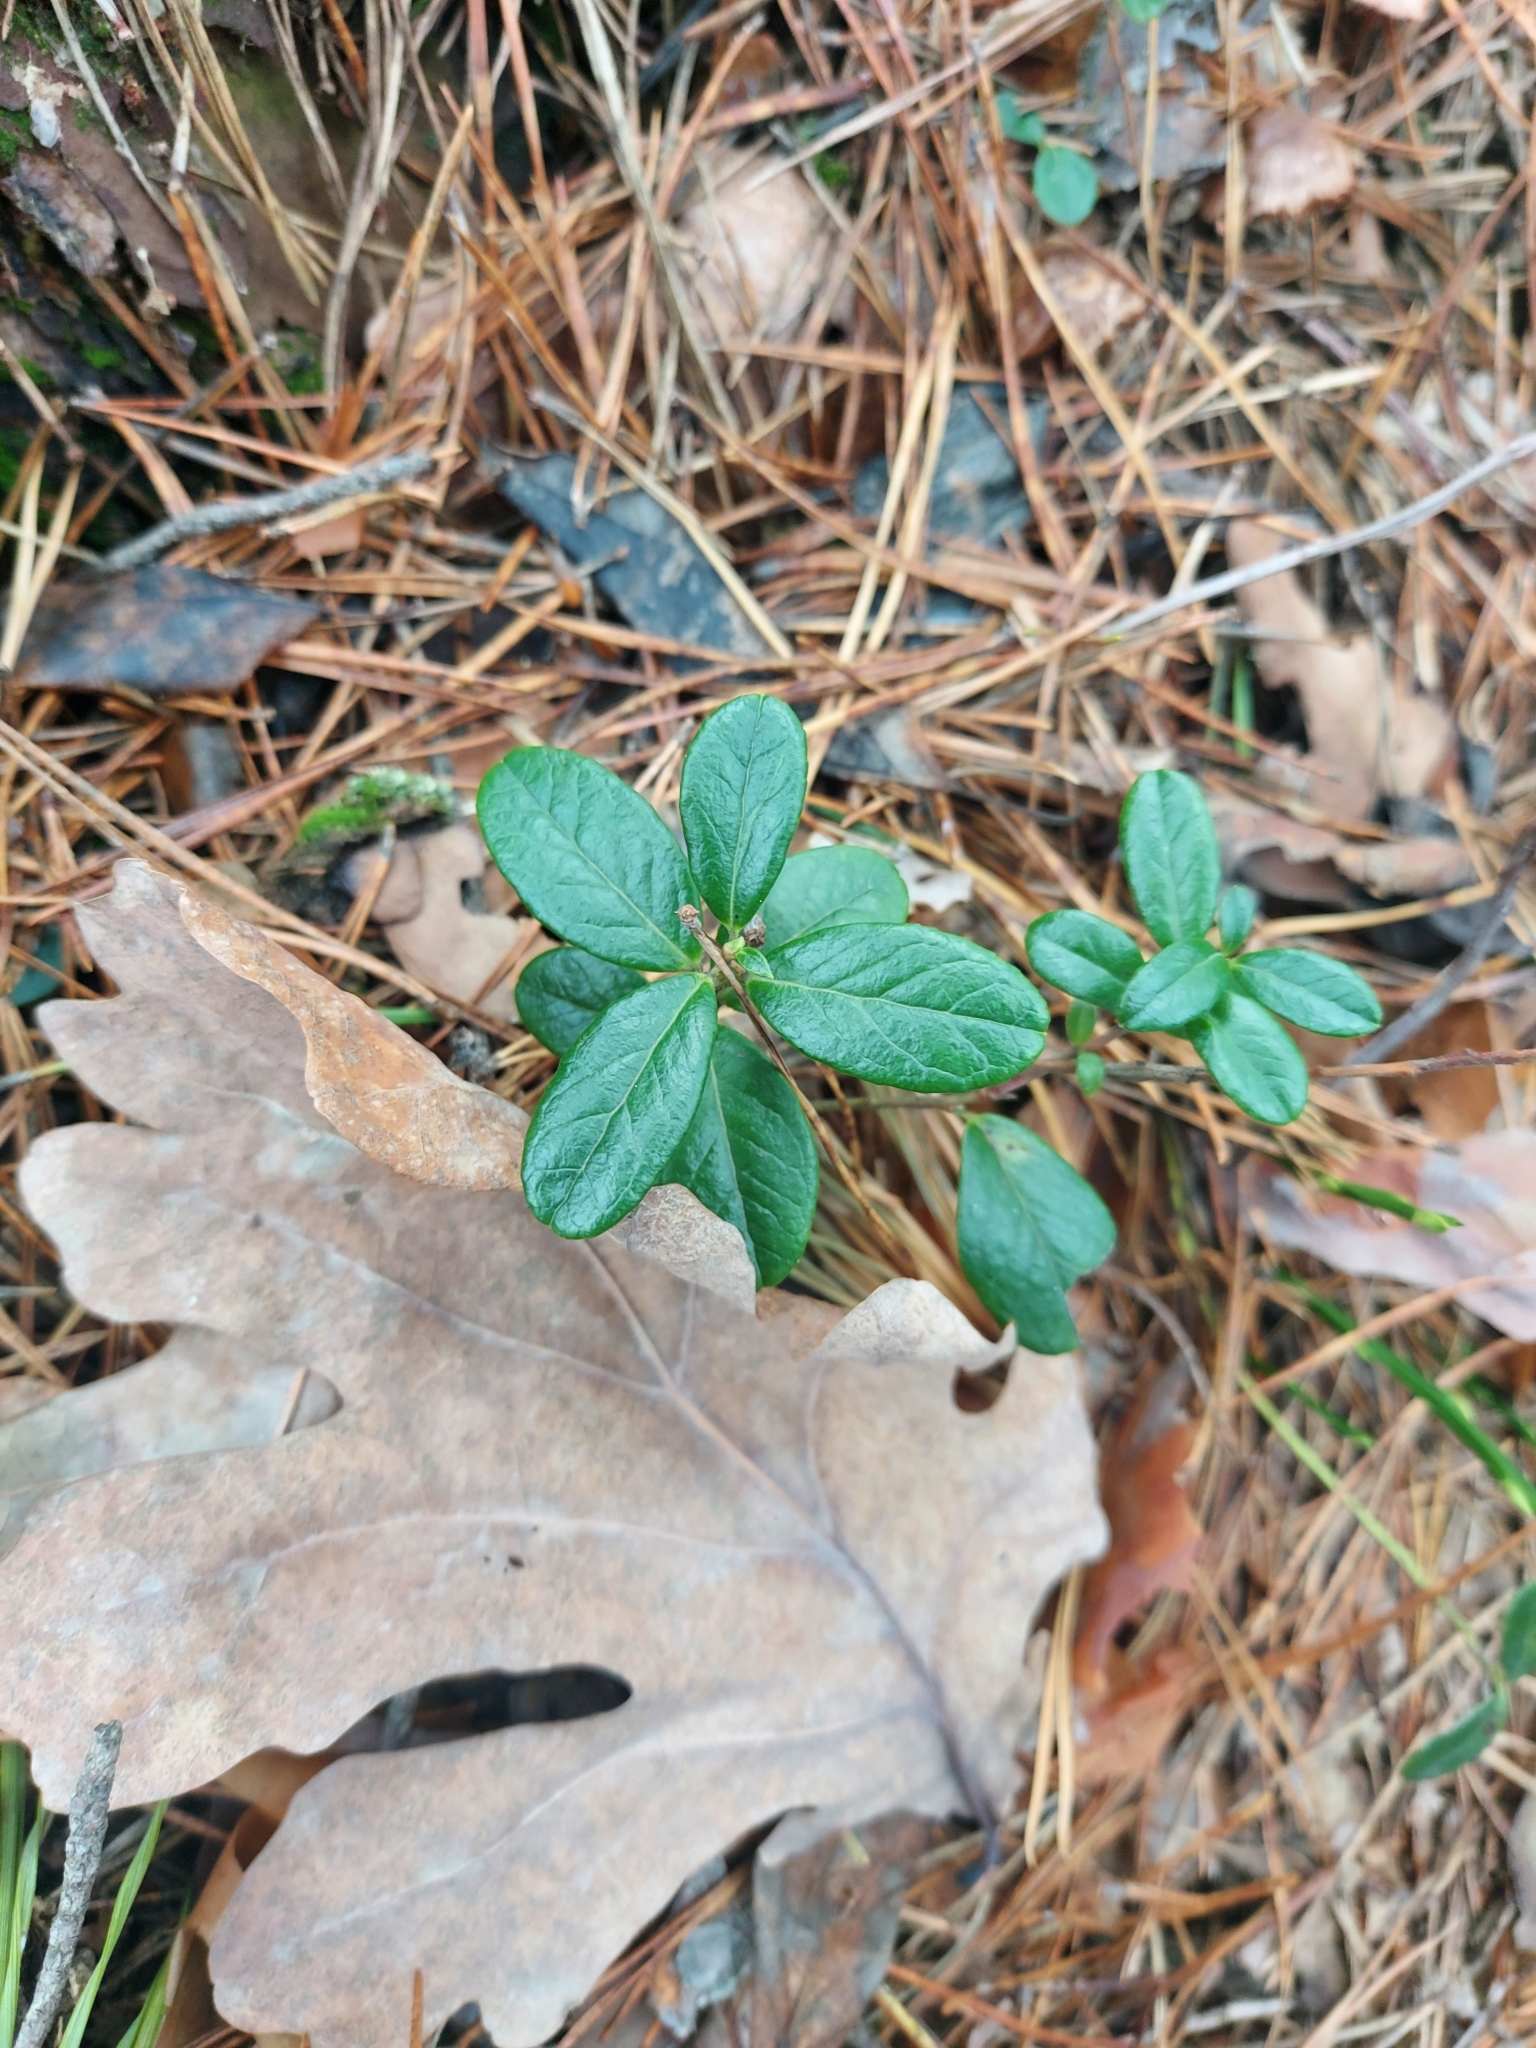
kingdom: Plantae
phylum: Tracheophyta
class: Magnoliopsida
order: Ericales
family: Ericaceae
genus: Vaccinium
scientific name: Vaccinium vitis-idaea
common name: Cowberry
